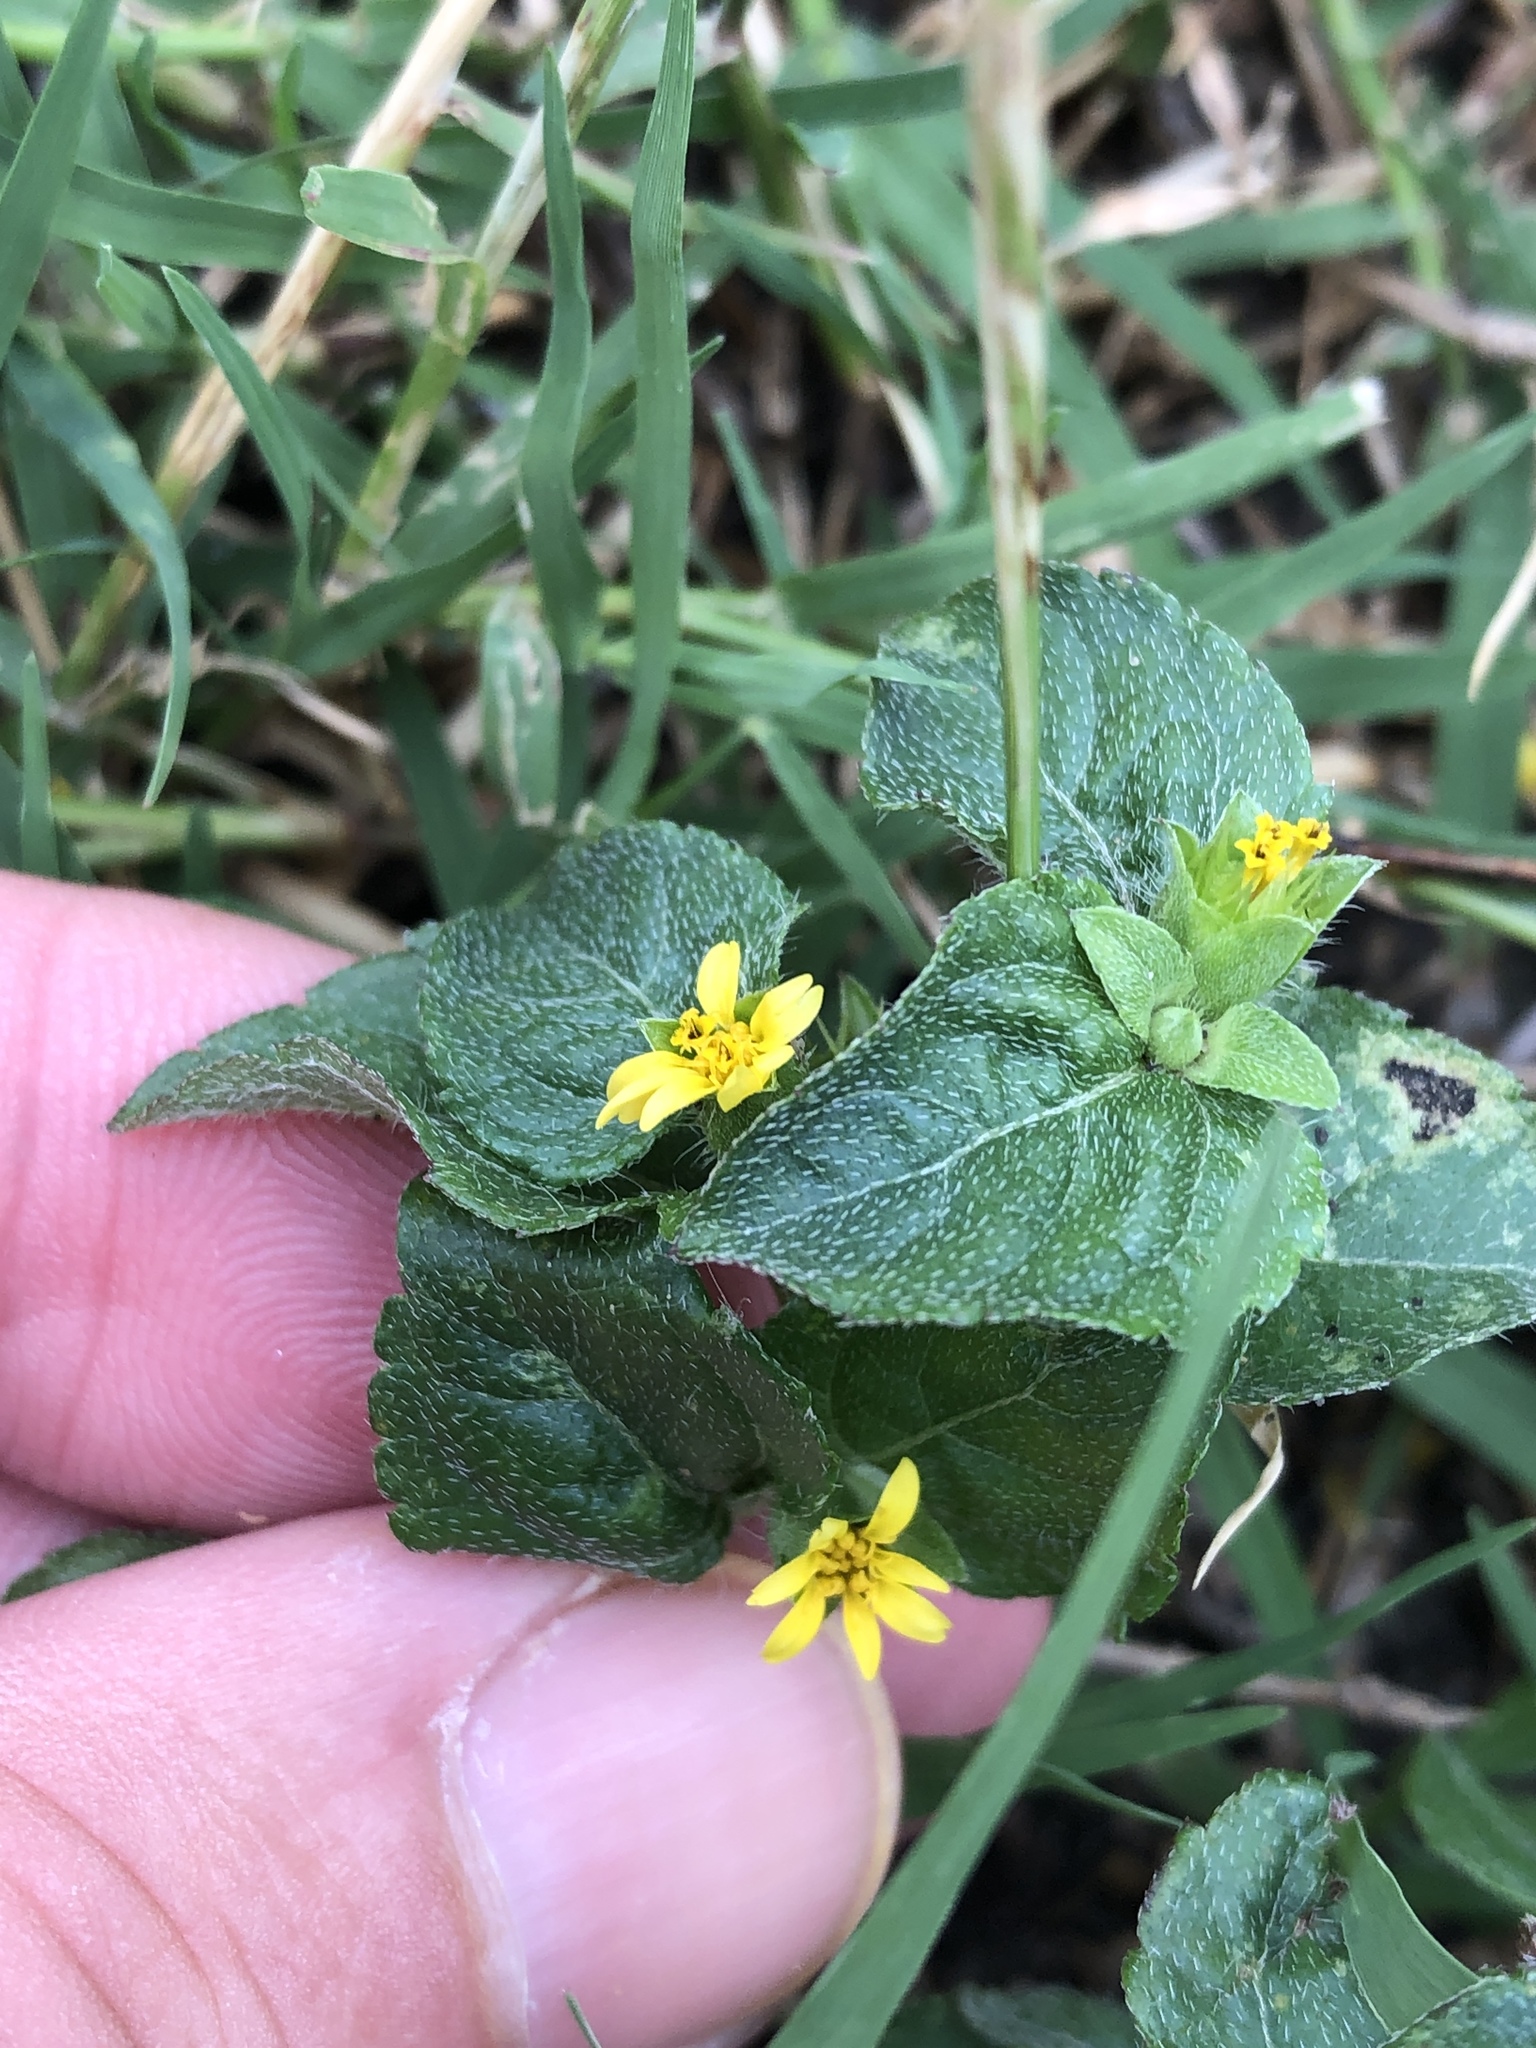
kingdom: Plantae
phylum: Tracheophyta
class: Magnoliopsida
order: Asterales
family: Asteraceae
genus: Calyptocarpus
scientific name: Calyptocarpus vialis
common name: Straggler daisy
